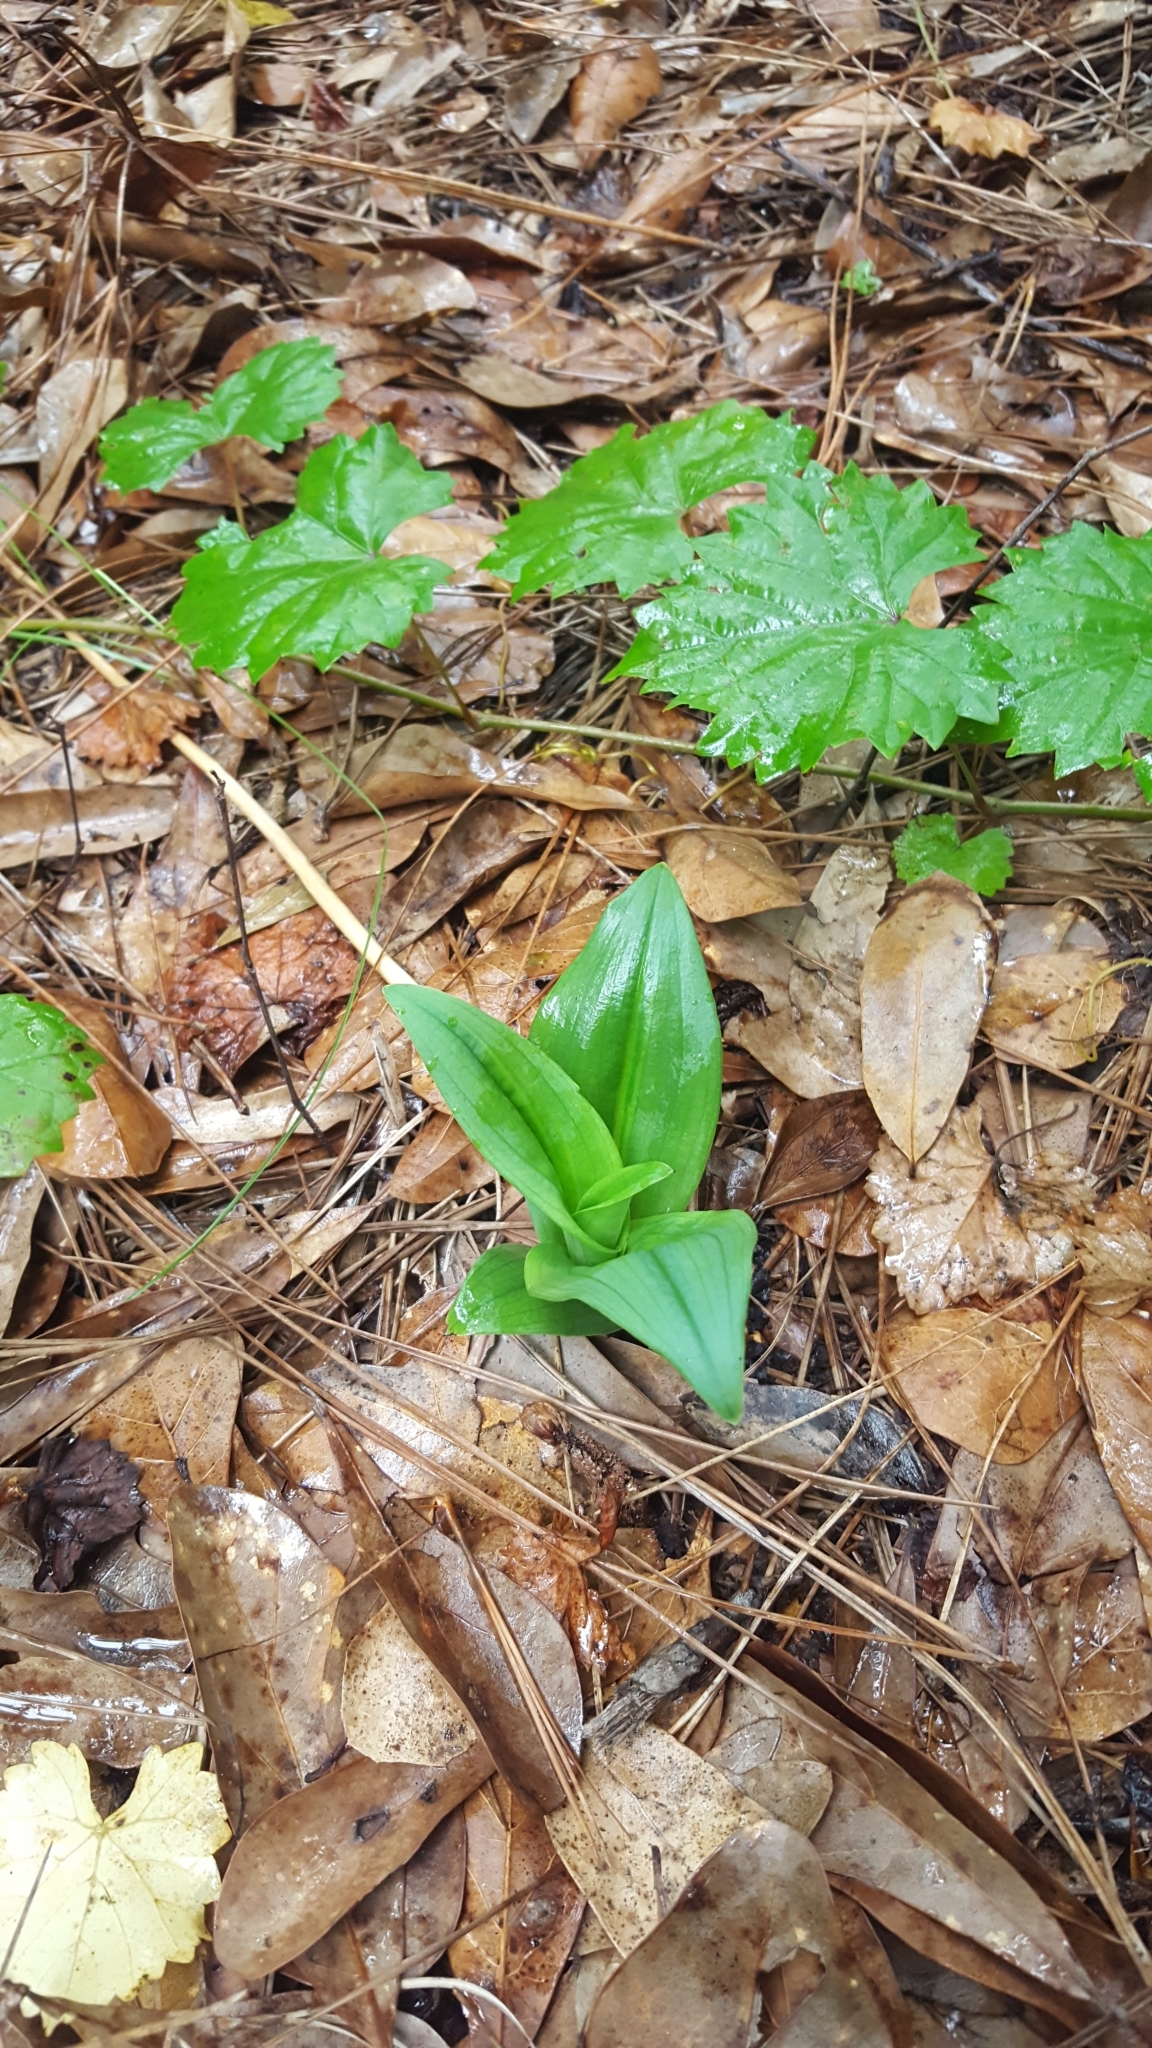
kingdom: Plantae
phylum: Tracheophyta
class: Liliopsida
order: Asparagales
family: Orchidaceae
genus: Habenaria
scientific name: Habenaria floribunda
